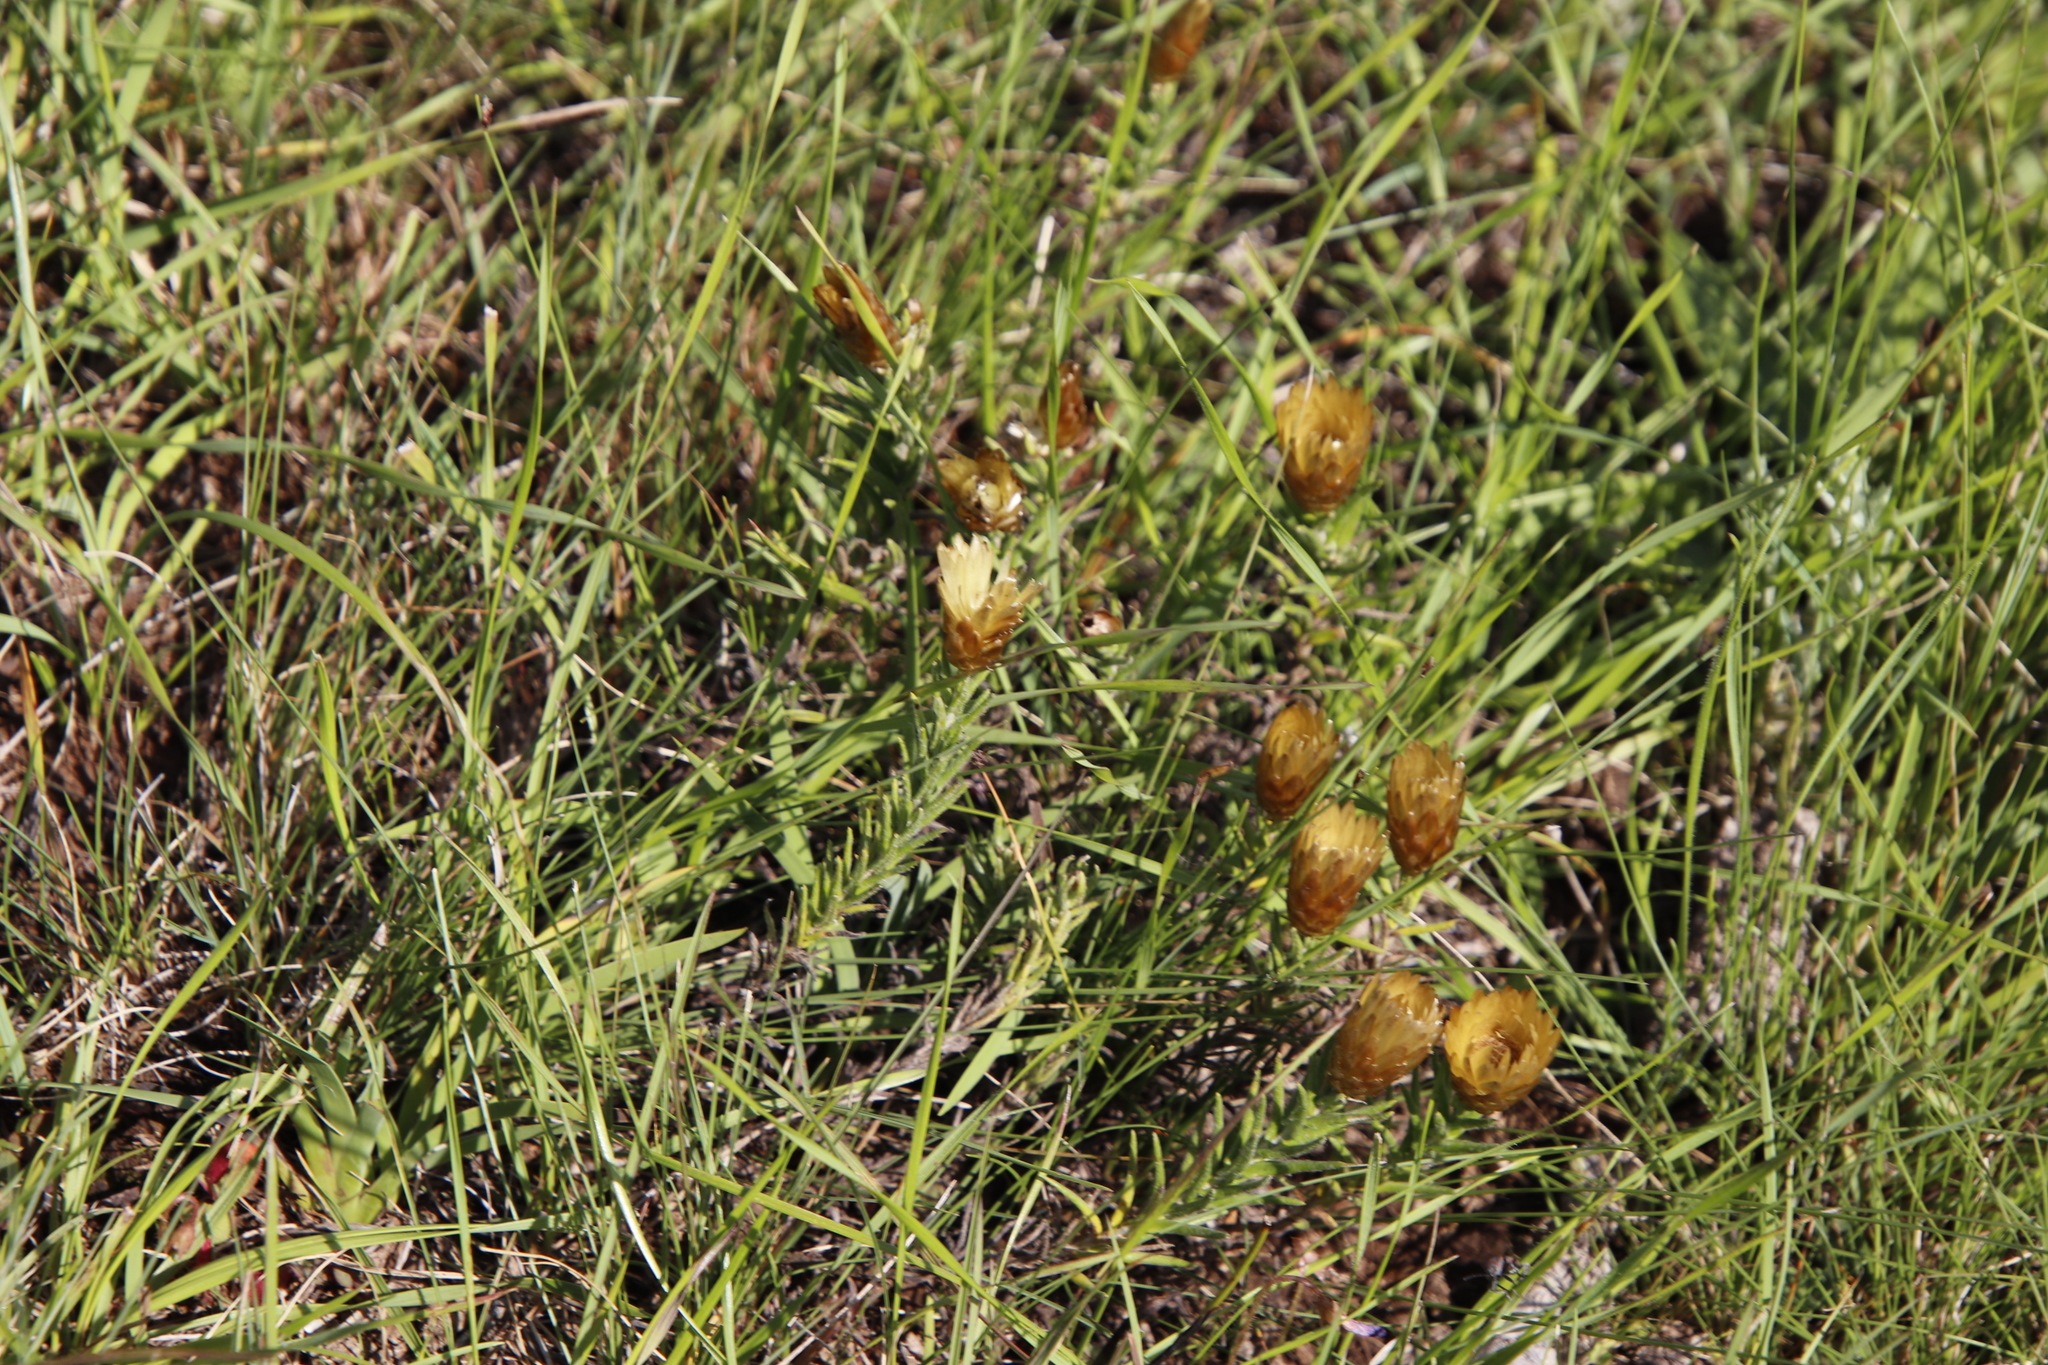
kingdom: Plantae
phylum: Tracheophyta
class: Magnoliopsida
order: Asterales
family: Asteraceae
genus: Helichrysum
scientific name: Helichrysum herbaceum
